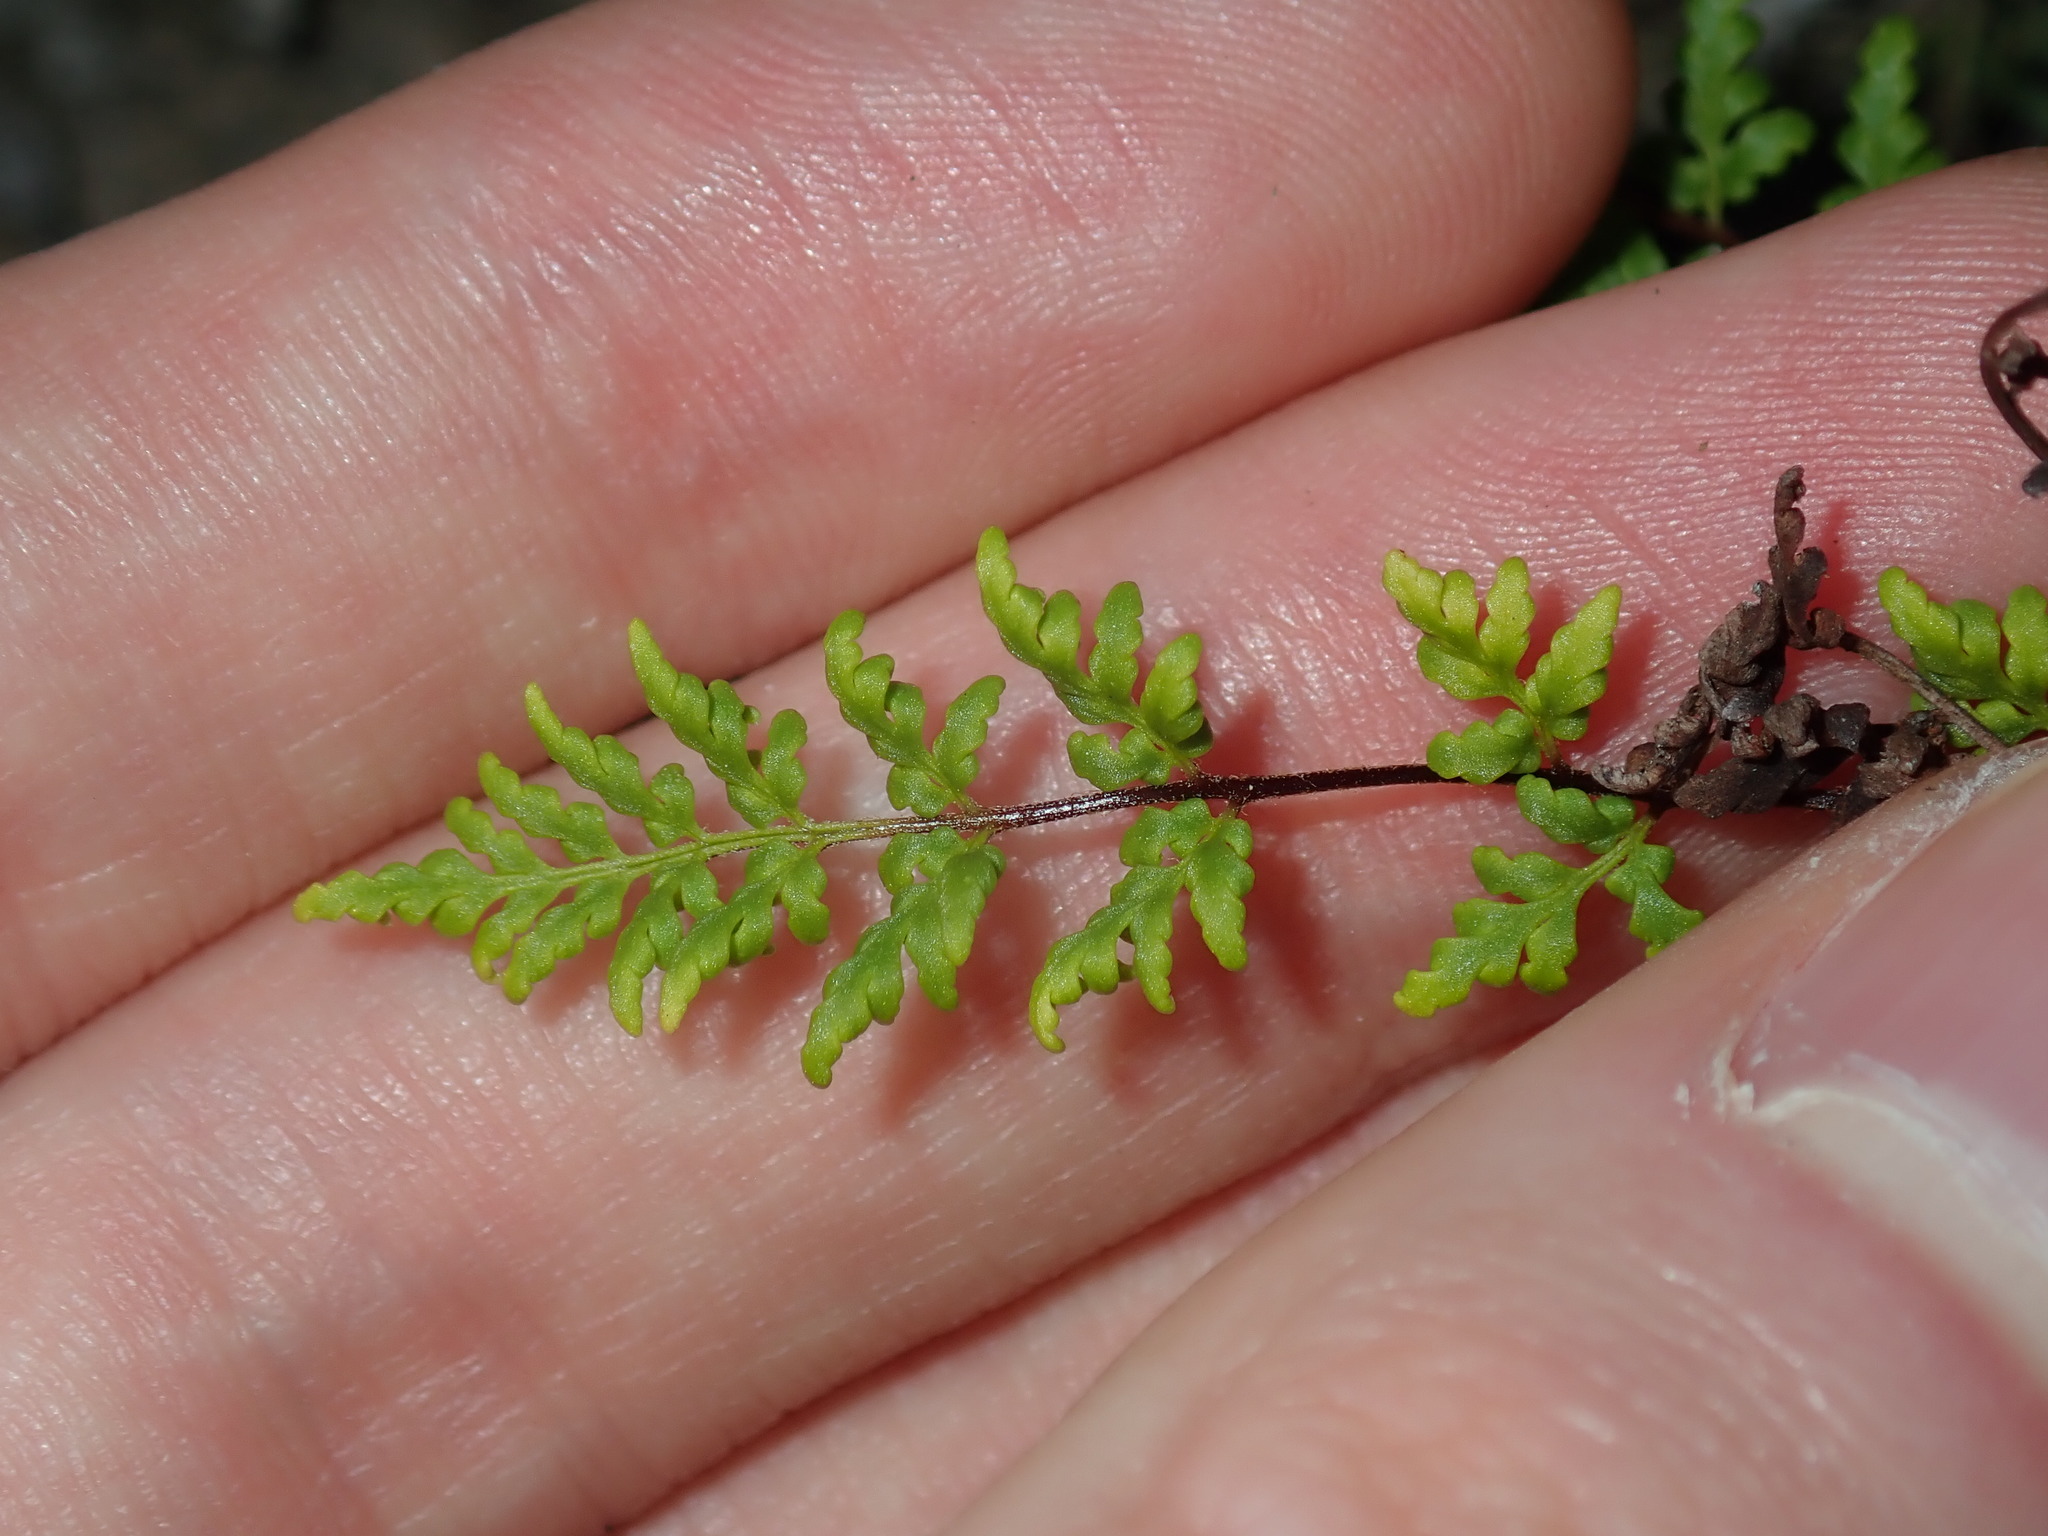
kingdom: Plantae
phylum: Tracheophyta
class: Polypodiopsida
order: Polypodiales
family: Pteridaceae
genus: Cheilanthes
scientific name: Cheilanthes sieberi
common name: Mulga fern
